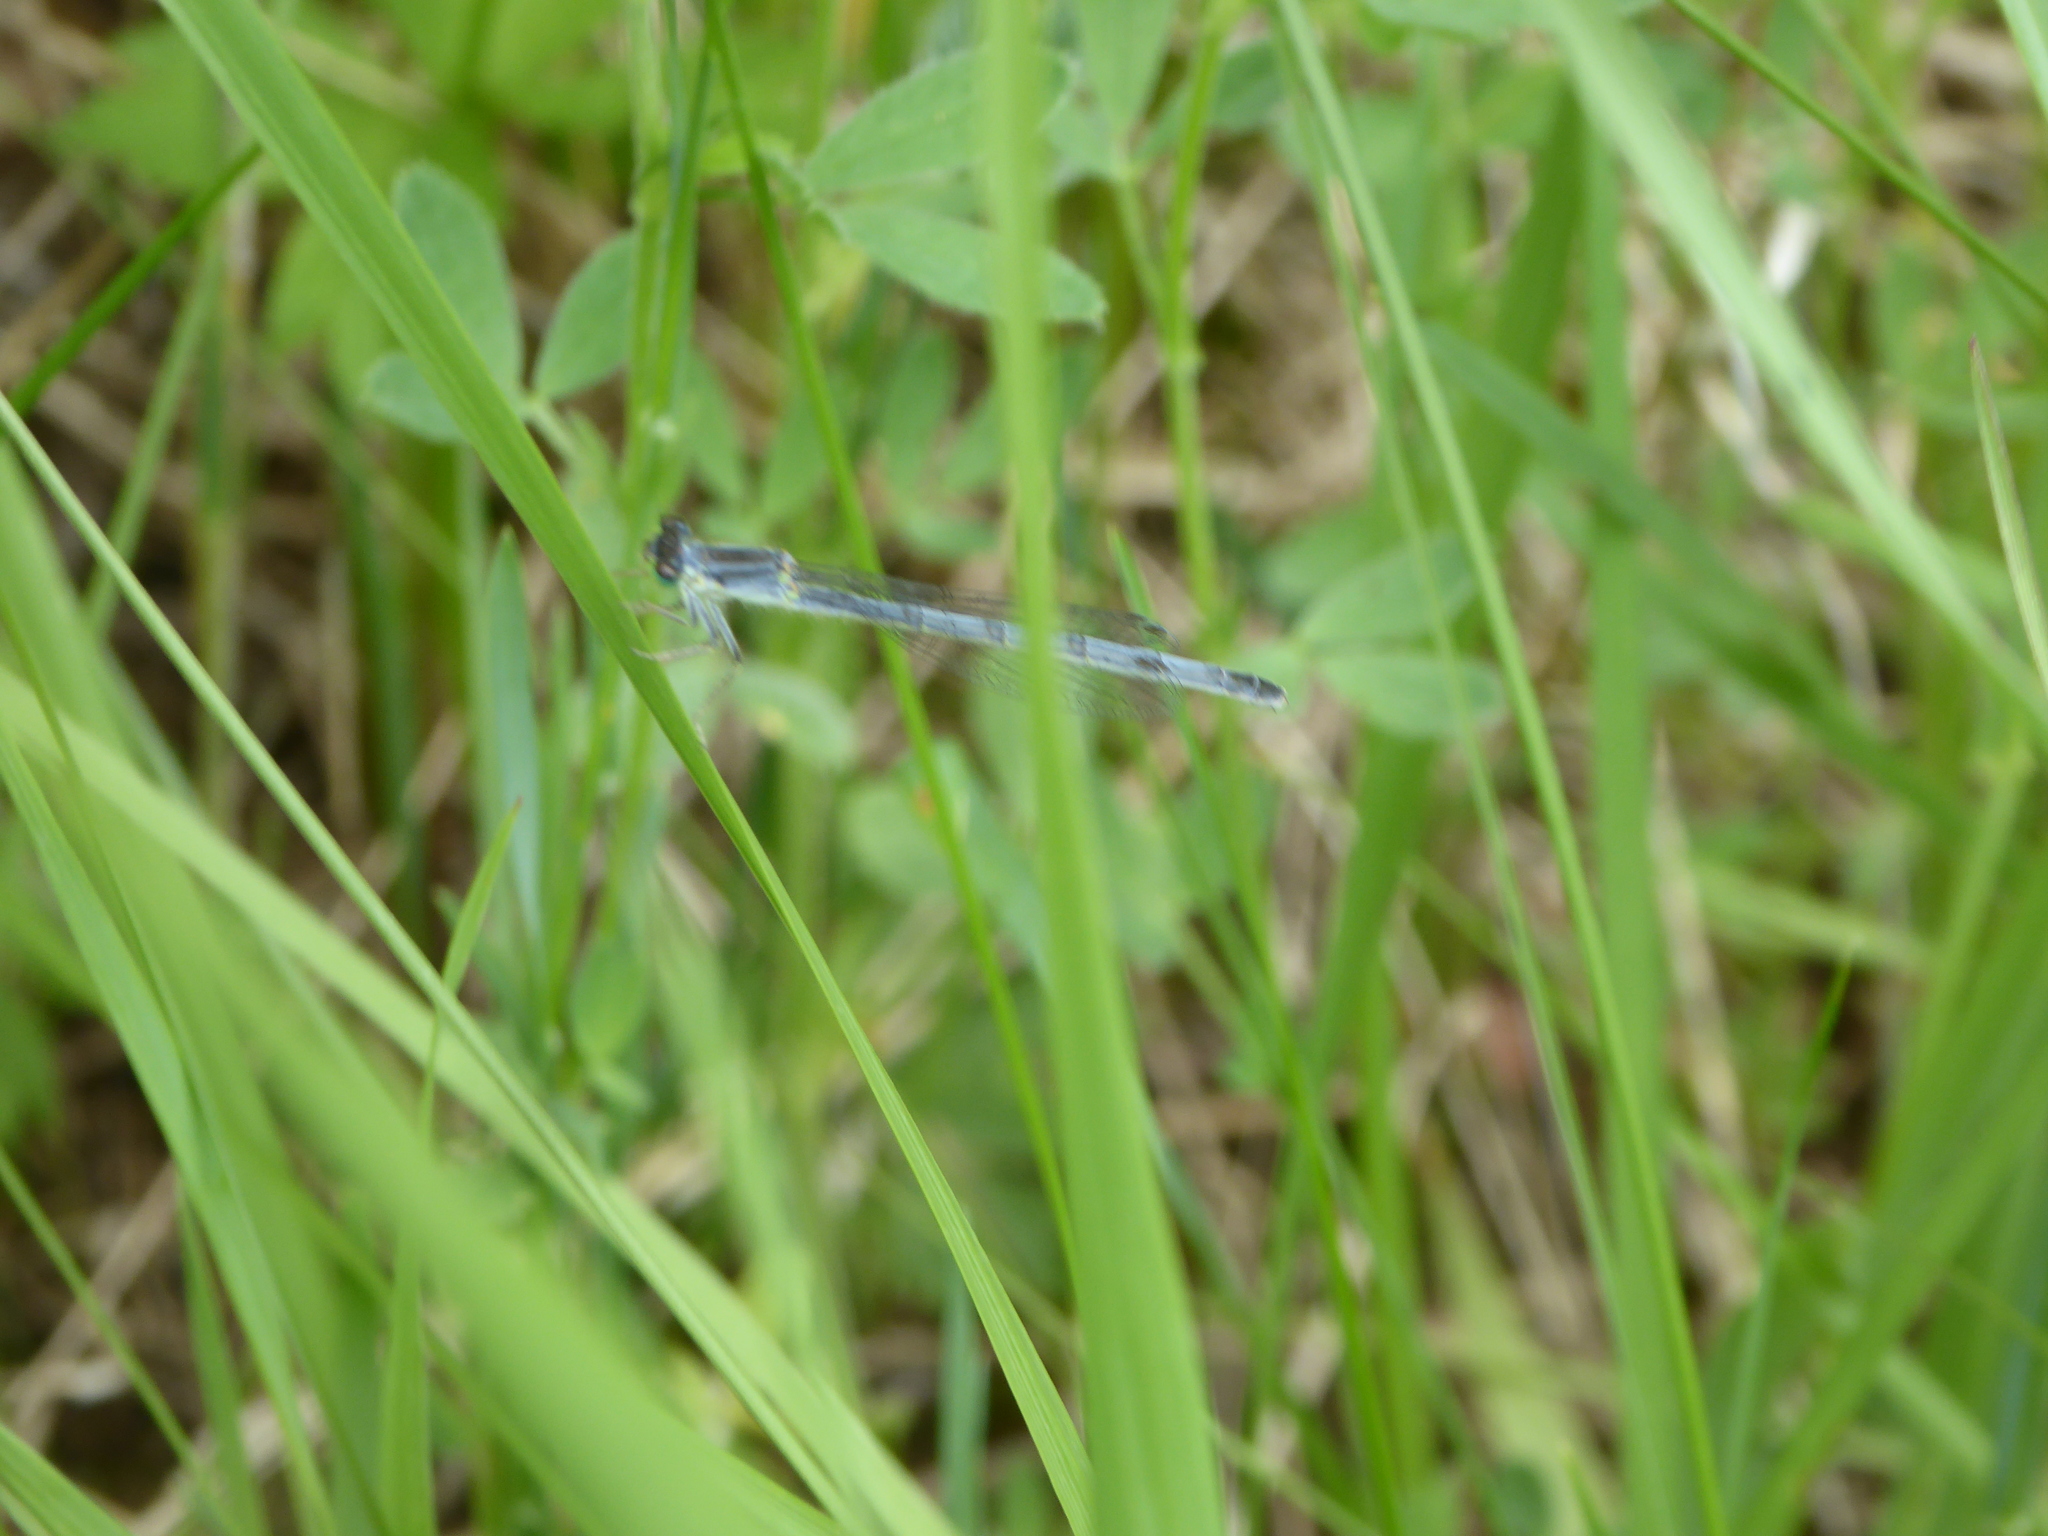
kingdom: Animalia
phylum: Arthropoda
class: Insecta
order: Odonata
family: Coenagrionidae
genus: Ischnura
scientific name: Ischnura verticalis
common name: Eastern forktail
